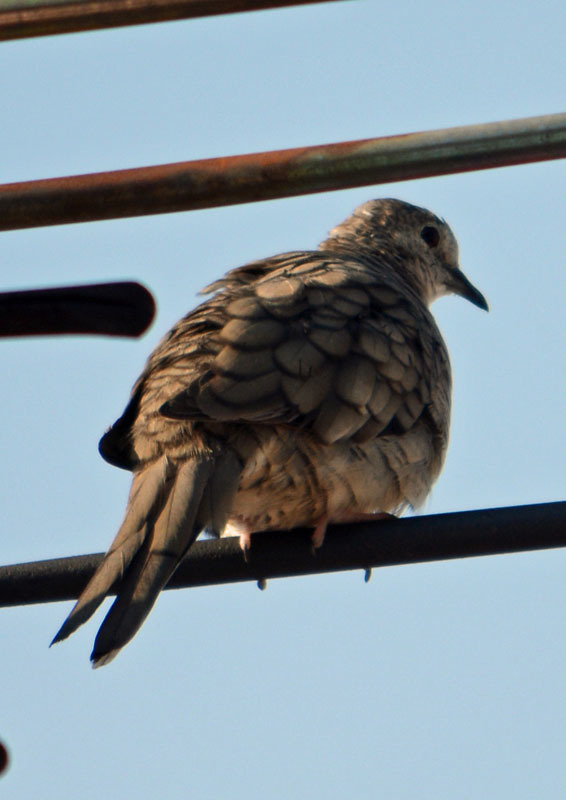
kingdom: Animalia
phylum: Chordata
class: Aves
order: Columbiformes
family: Columbidae
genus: Columbina
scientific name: Columbina inca
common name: Inca dove
